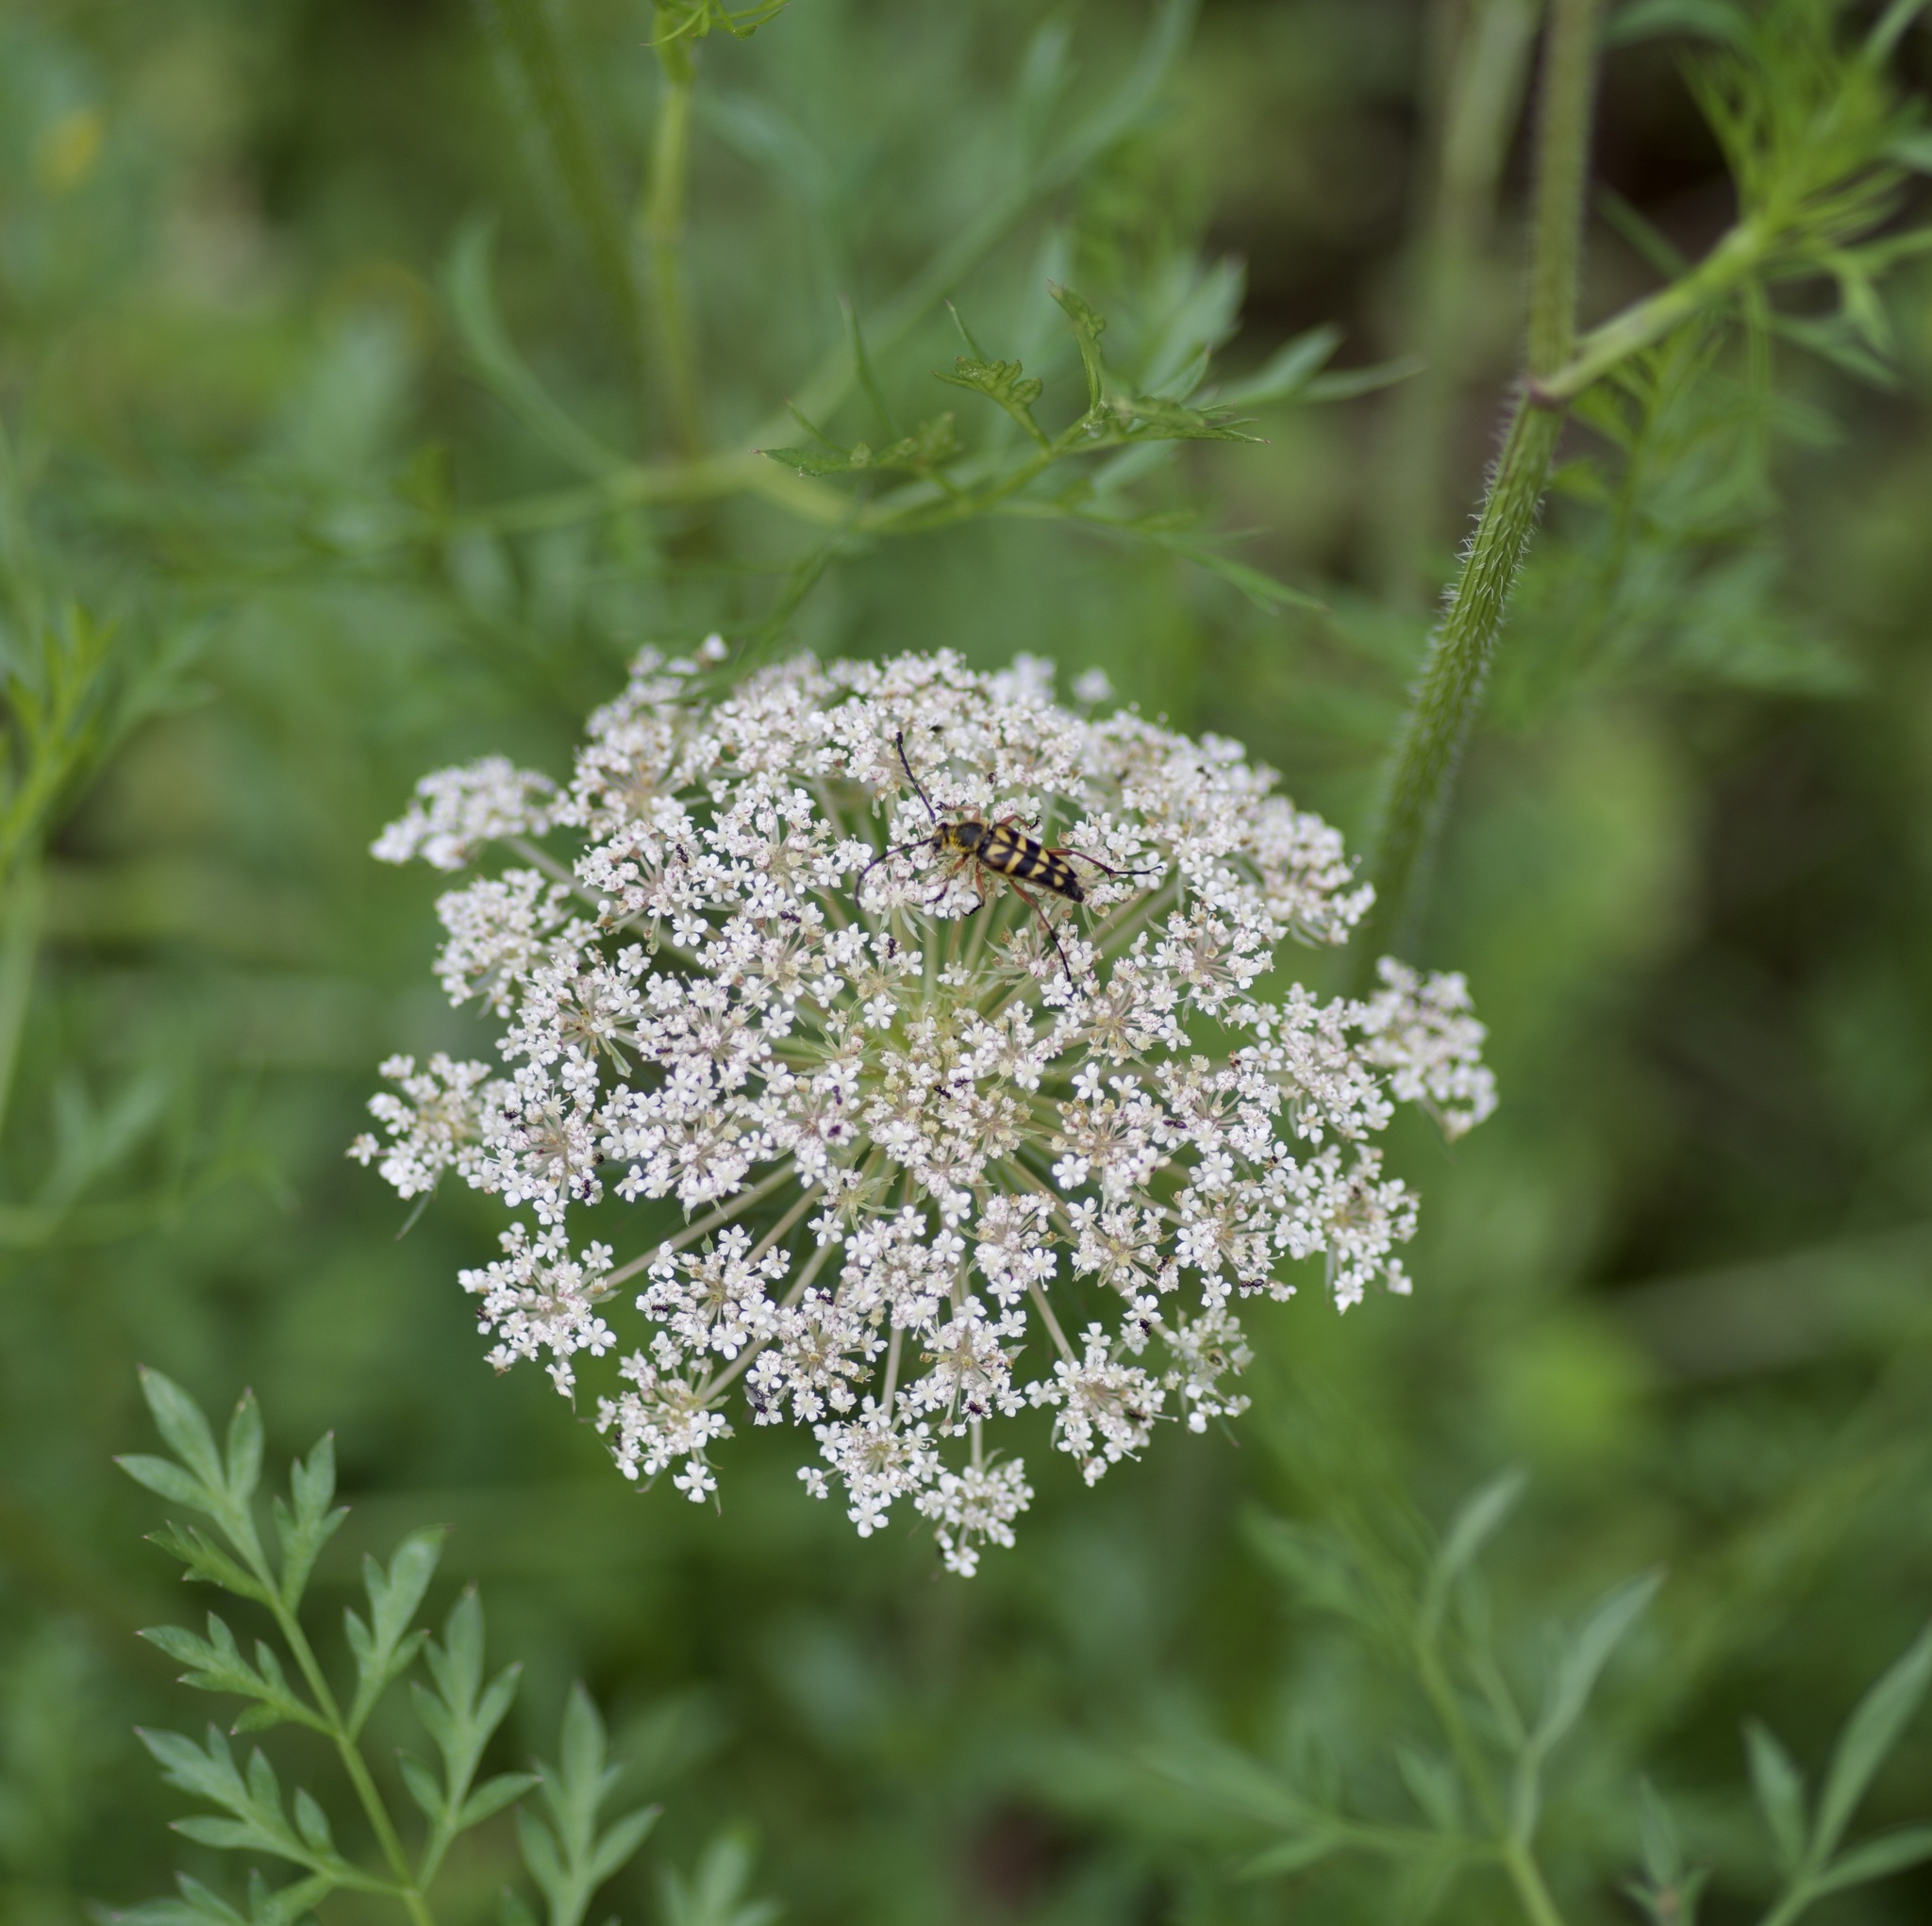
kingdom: Animalia
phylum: Arthropoda
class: Insecta
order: Coleoptera
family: Cerambycidae
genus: Typocerus
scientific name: Typocerus zebra
